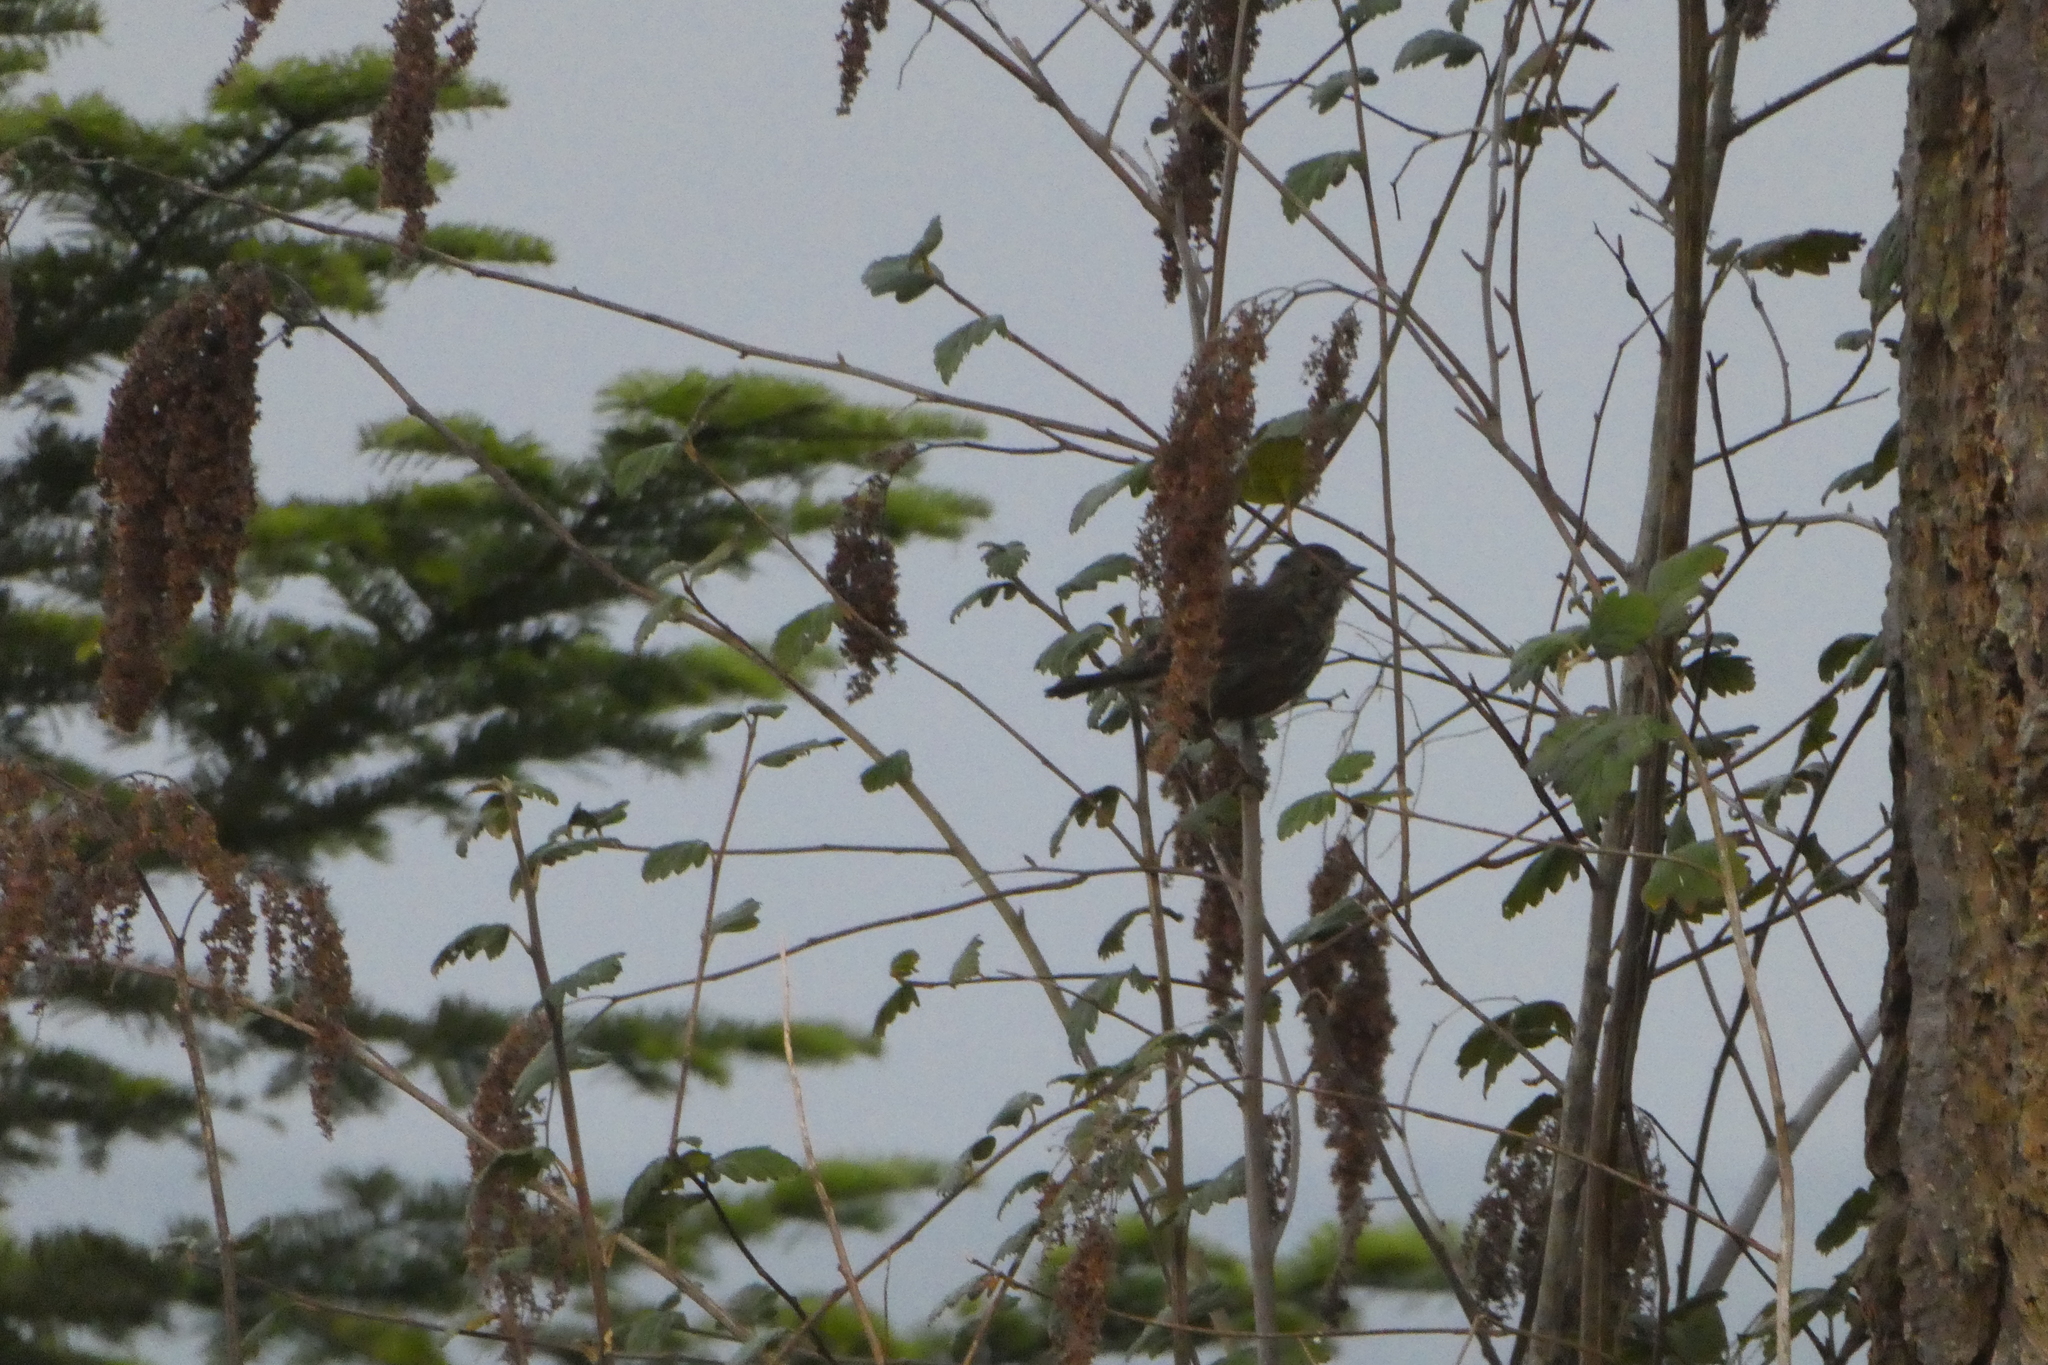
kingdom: Animalia
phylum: Chordata
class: Aves
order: Passeriformes
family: Passerellidae
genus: Melospiza
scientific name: Melospiza melodia
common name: Song sparrow
